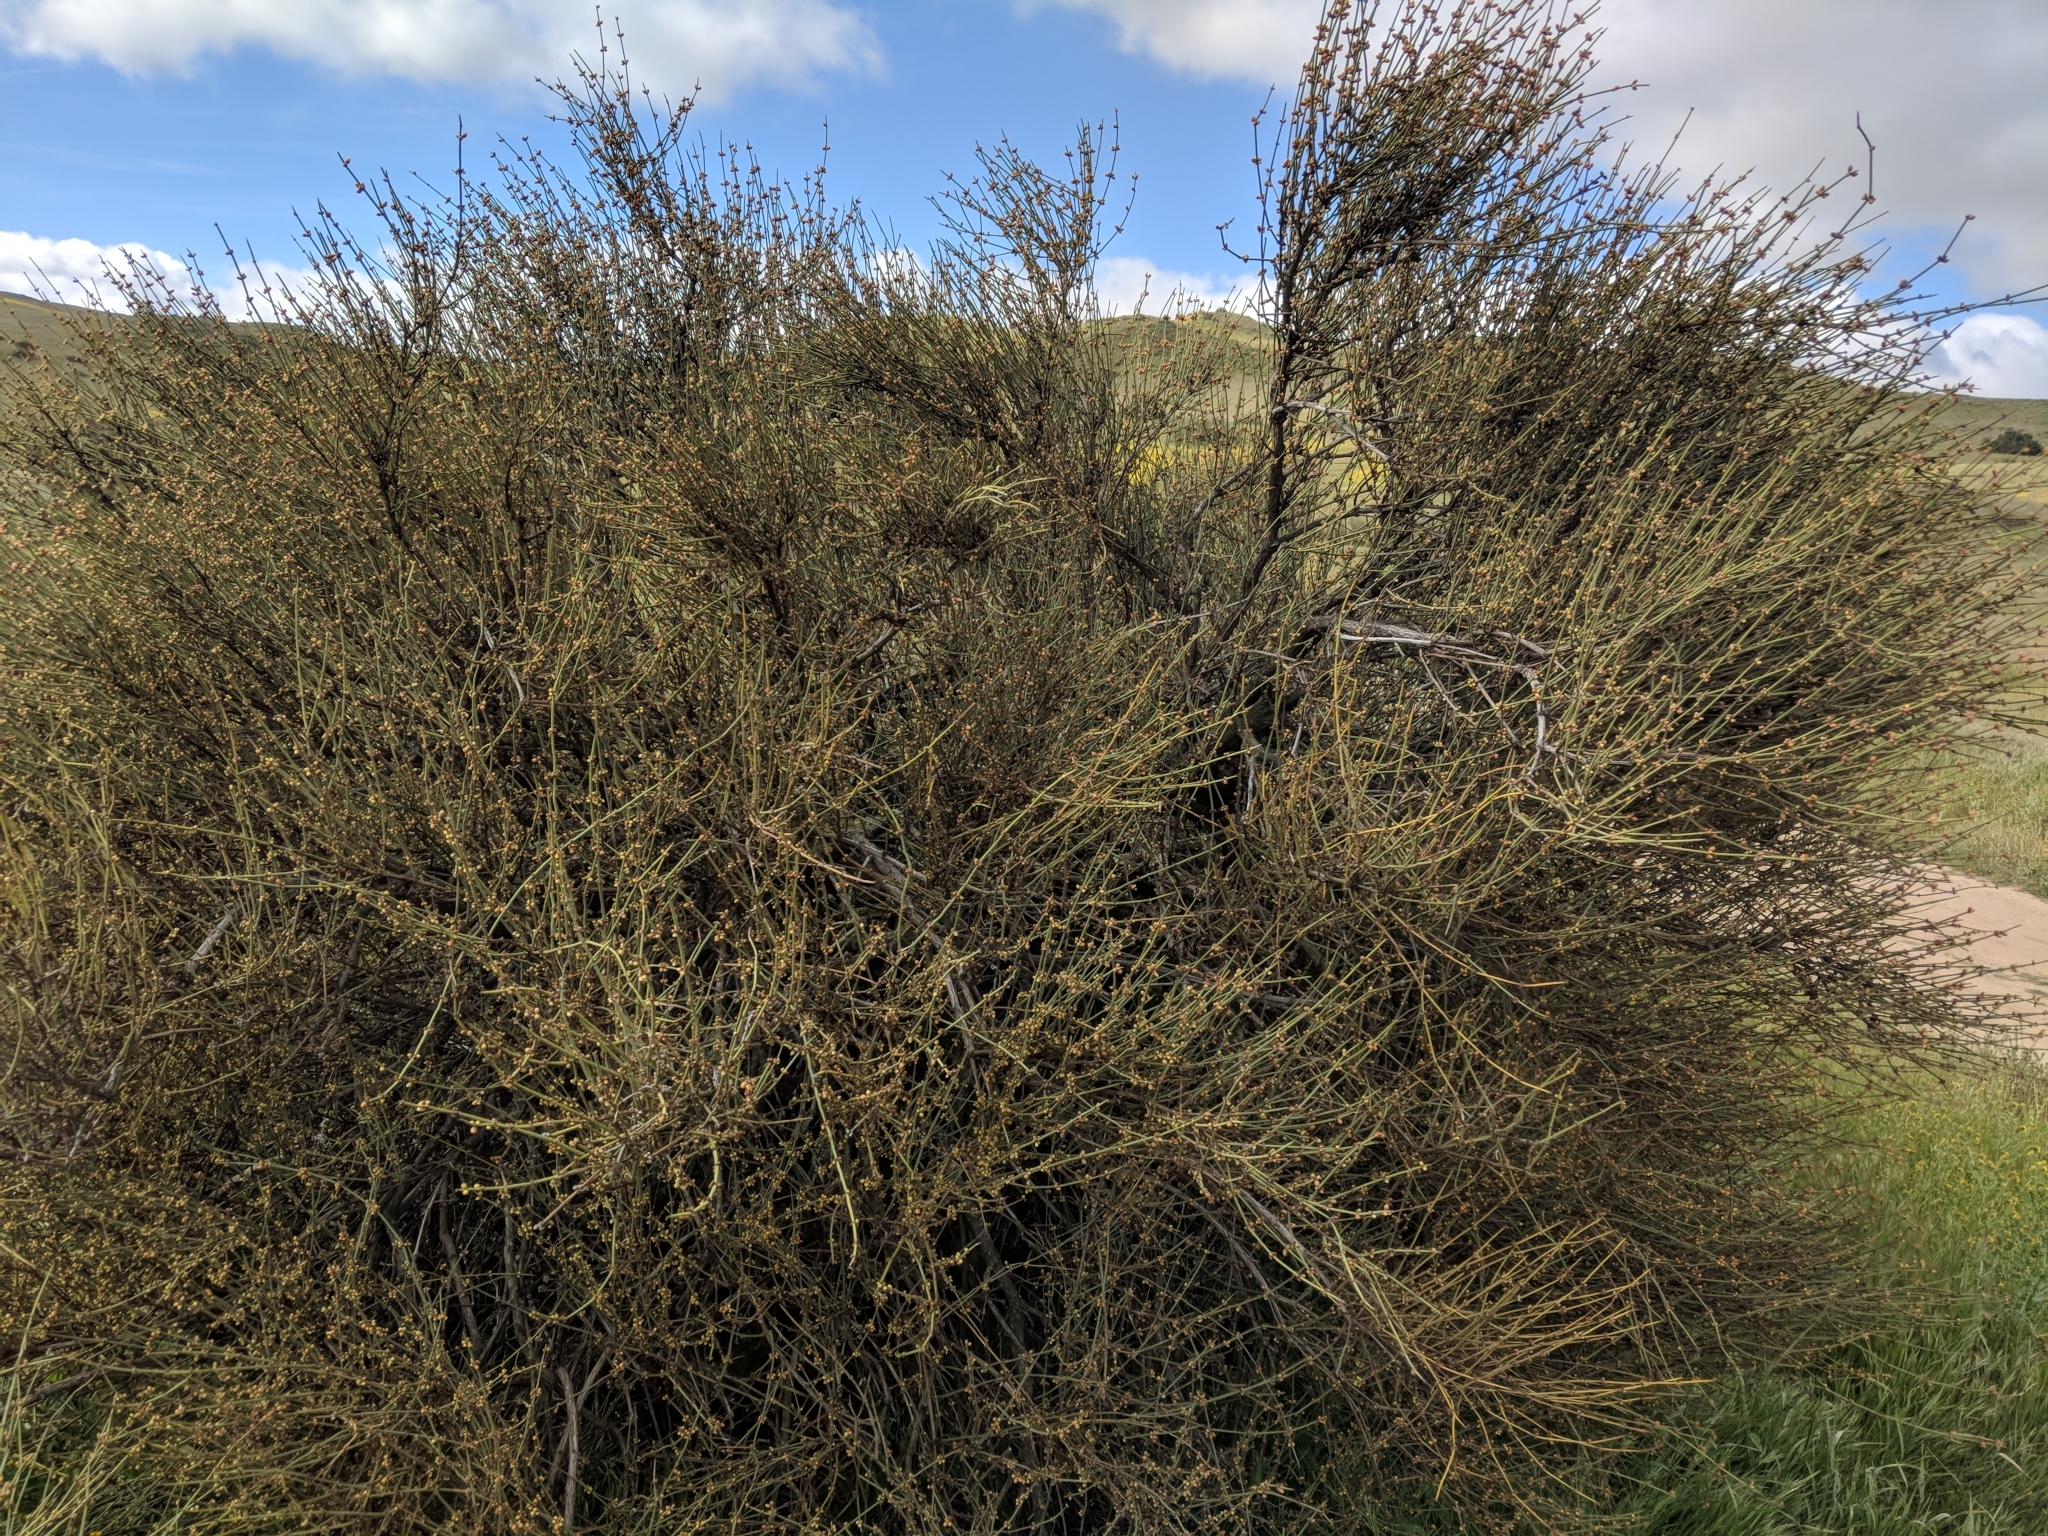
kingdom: Plantae
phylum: Tracheophyta
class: Gnetopsida
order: Ephedrales
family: Ephedraceae
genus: Ephedra
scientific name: Ephedra californica
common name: California ephedra
